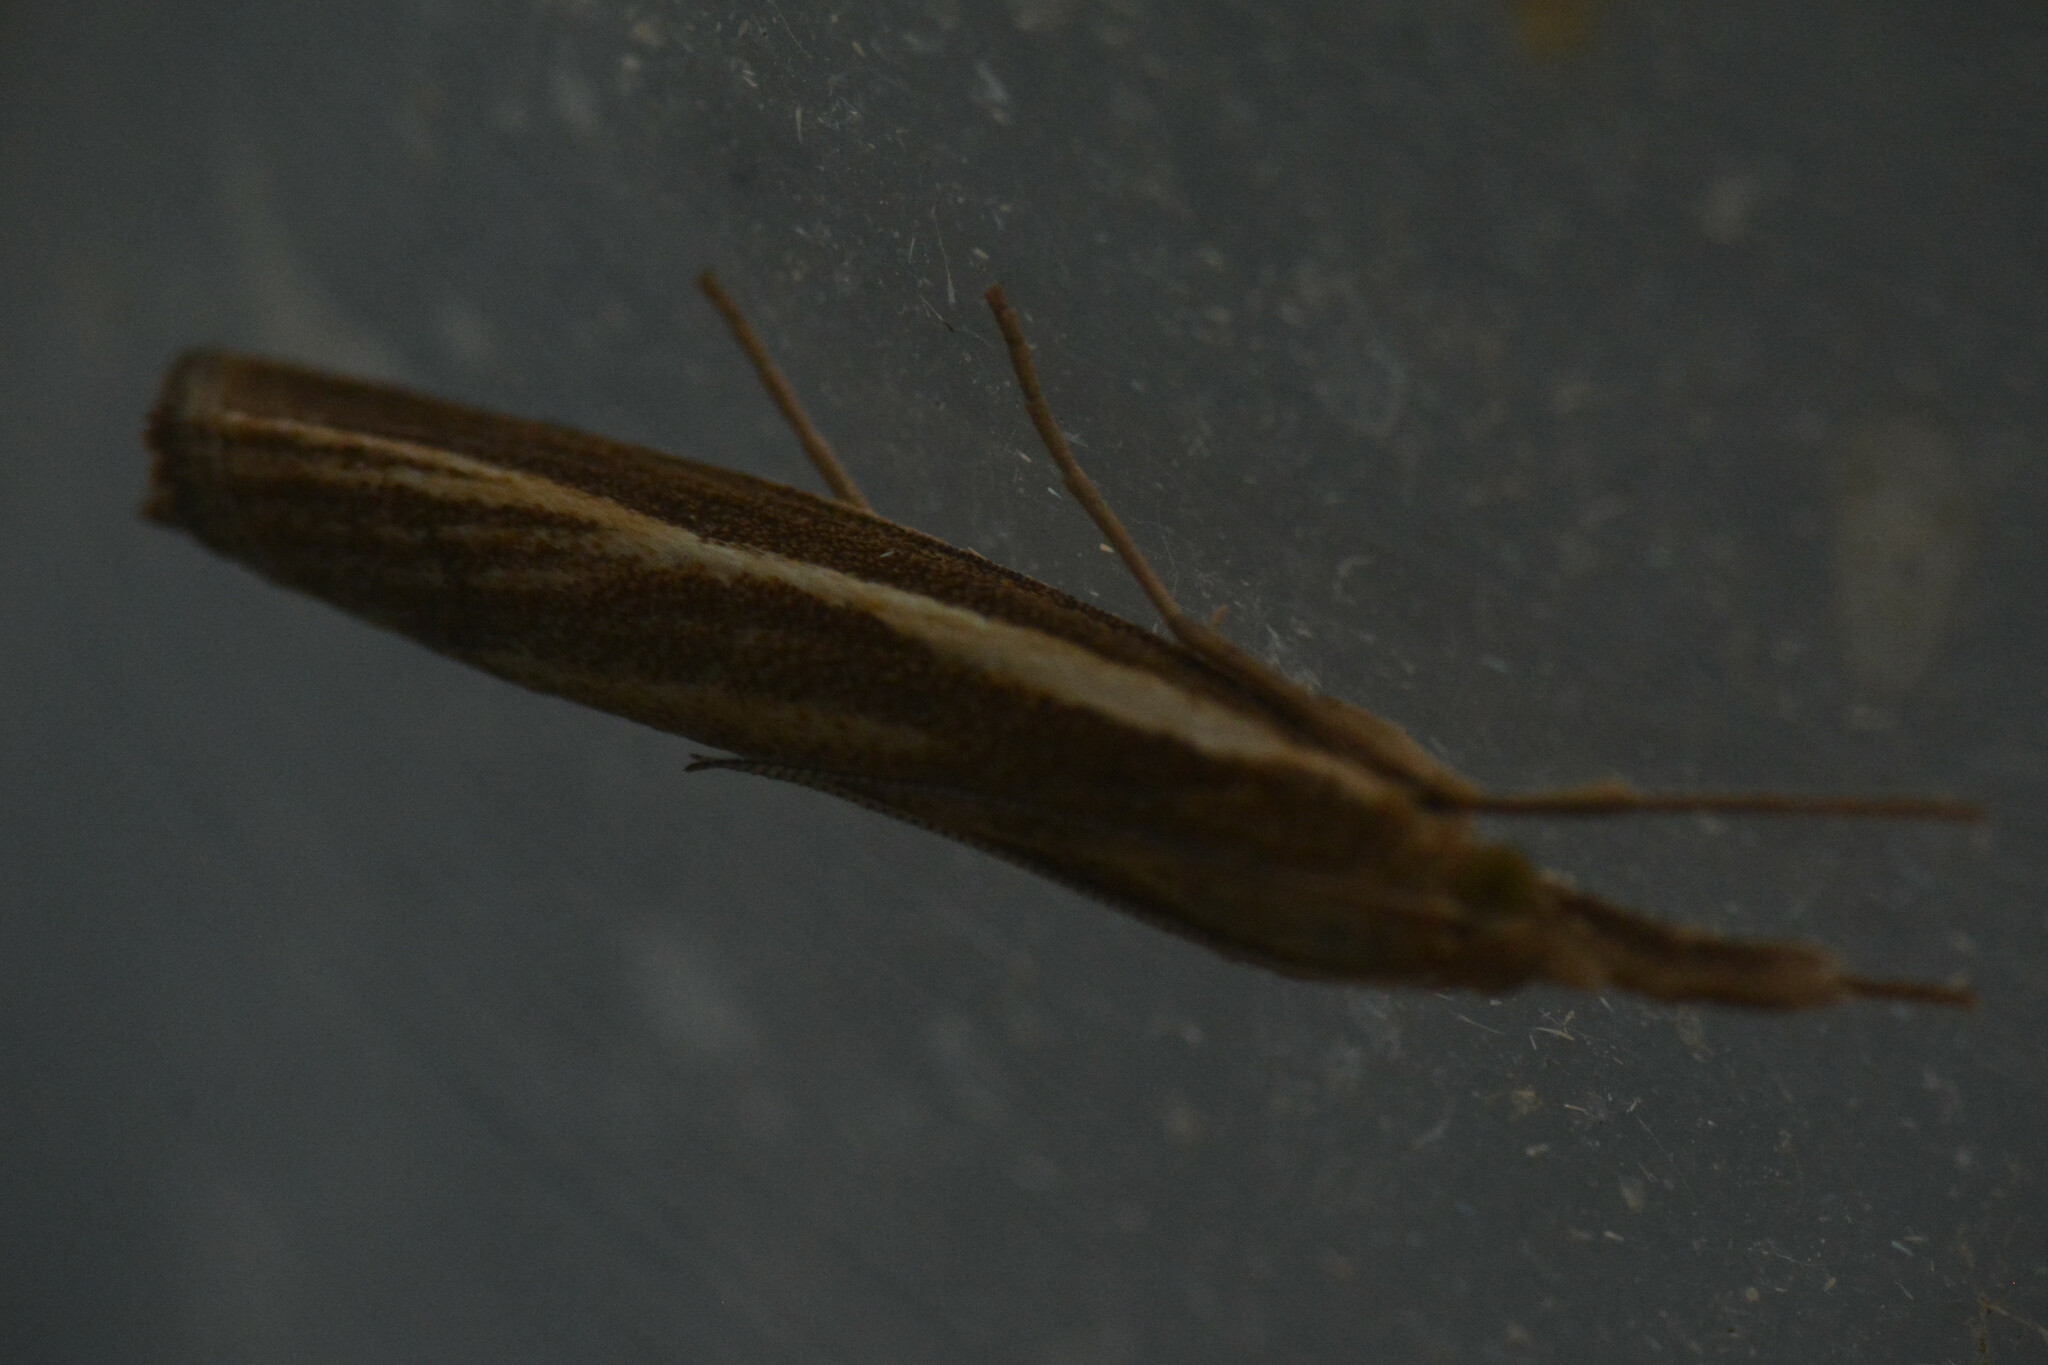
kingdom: Animalia
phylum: Arthropoda
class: Insecta
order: Lepidoptera
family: Crambidae
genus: Agriphila
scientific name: Agriphila tristellus
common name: Common grass-veneer
